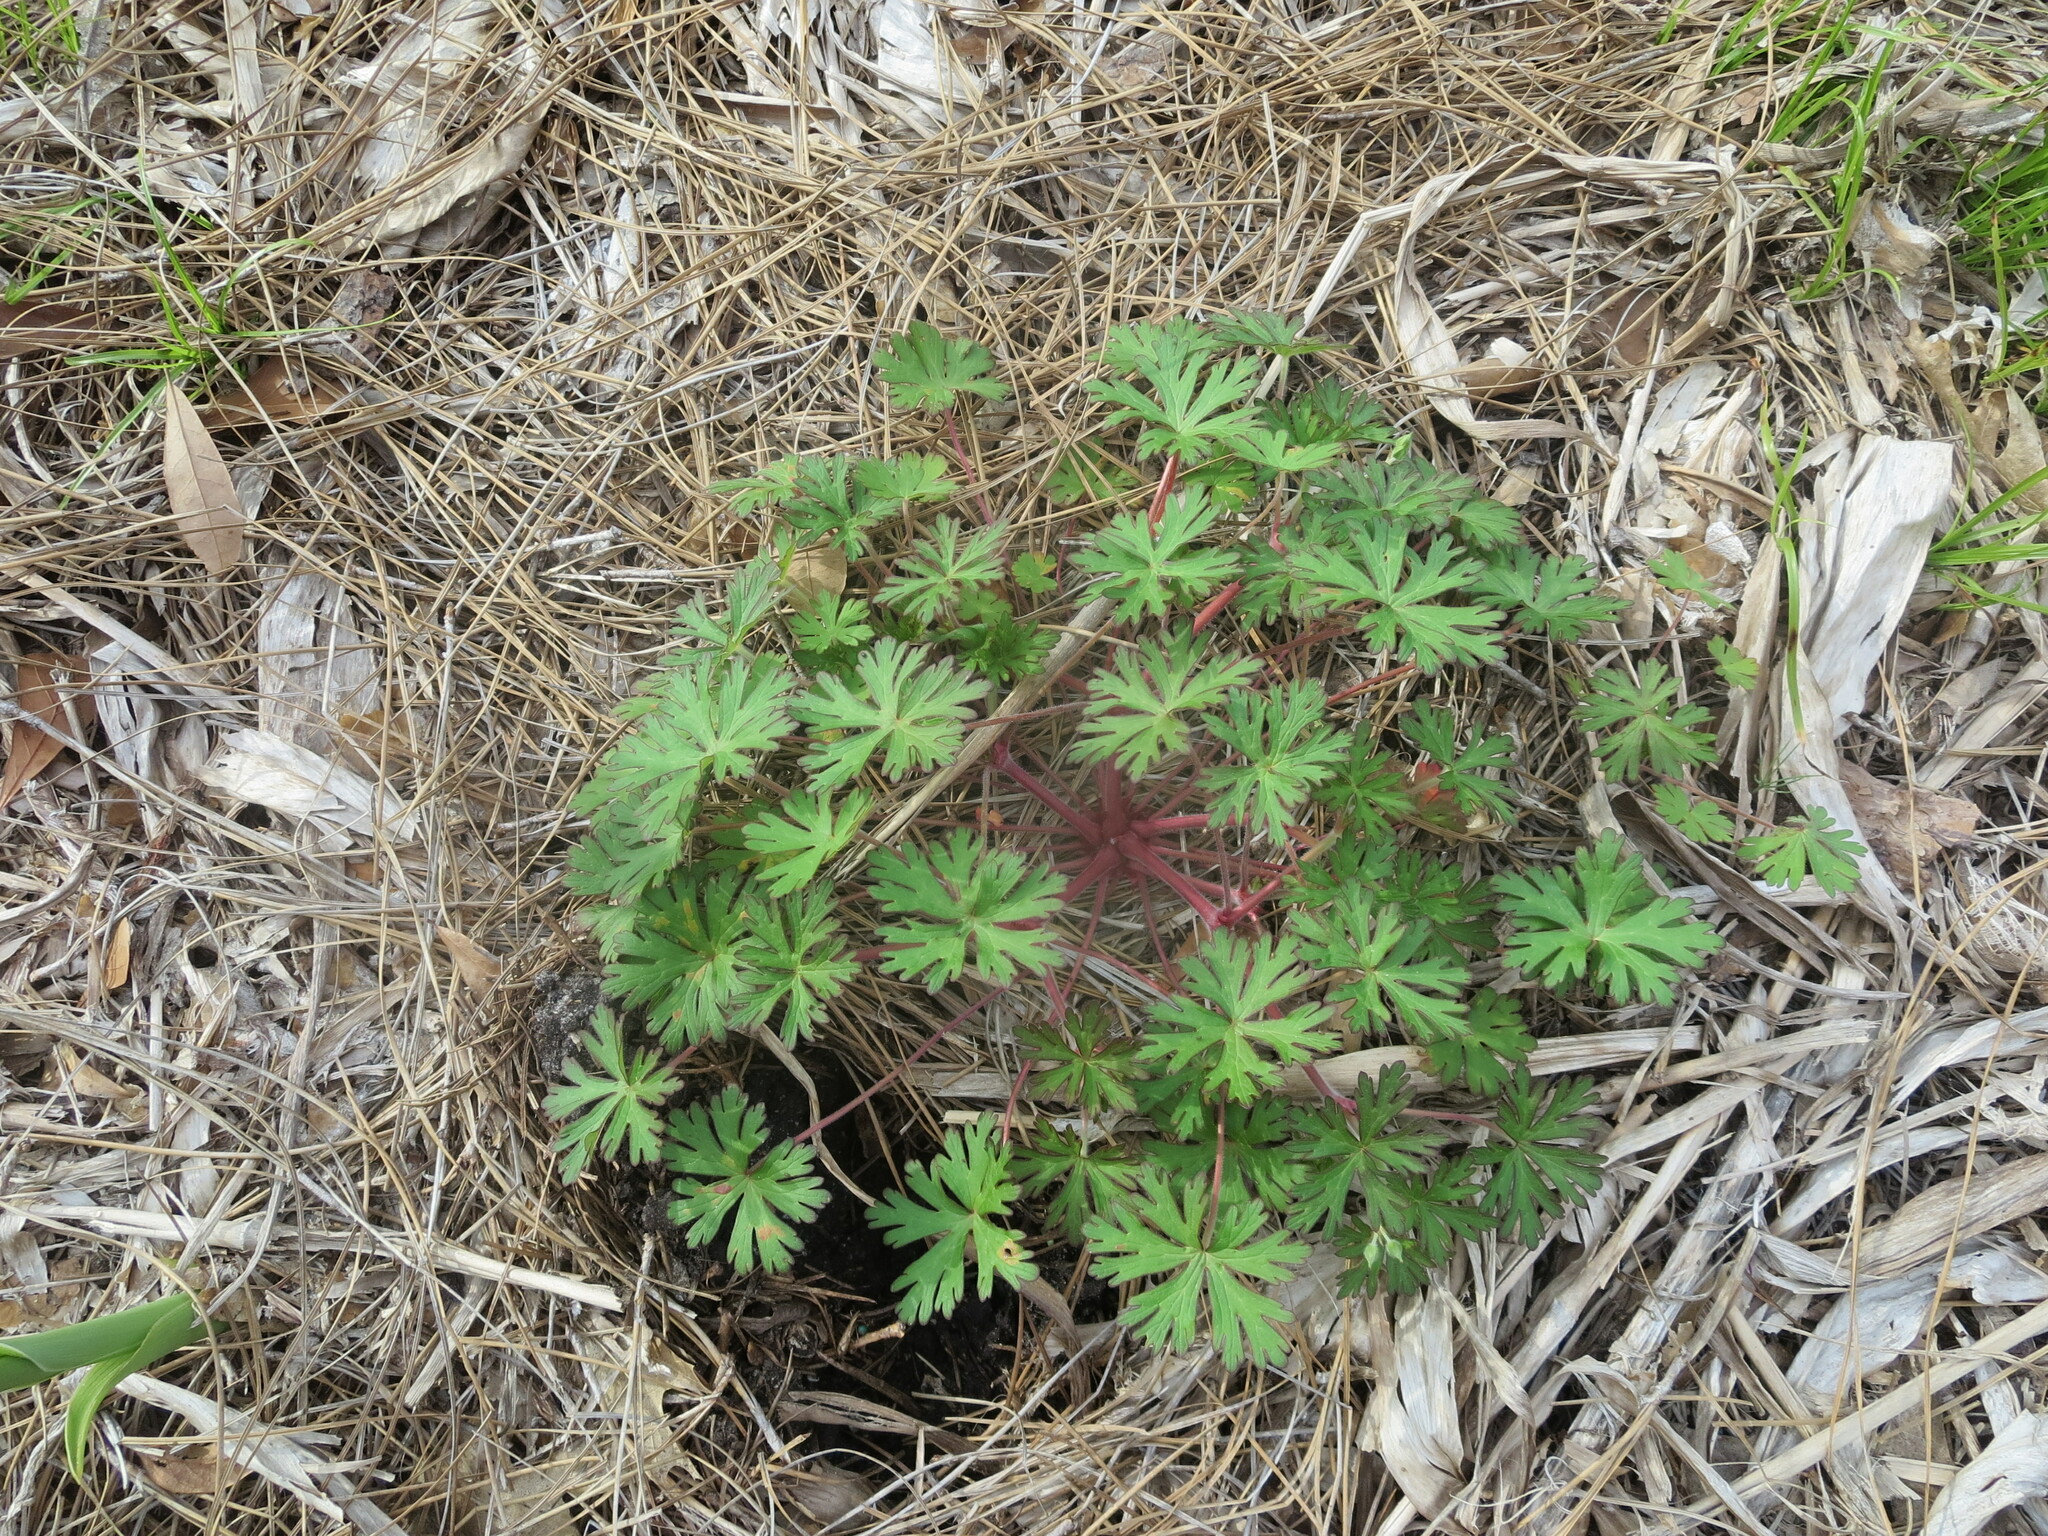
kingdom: Plantae
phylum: Tracheophyta
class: Magnoliopsida
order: Geraniales
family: Geraniaceae
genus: Geranium
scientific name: Geranium carolinianum
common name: Carolina crane's-bill
